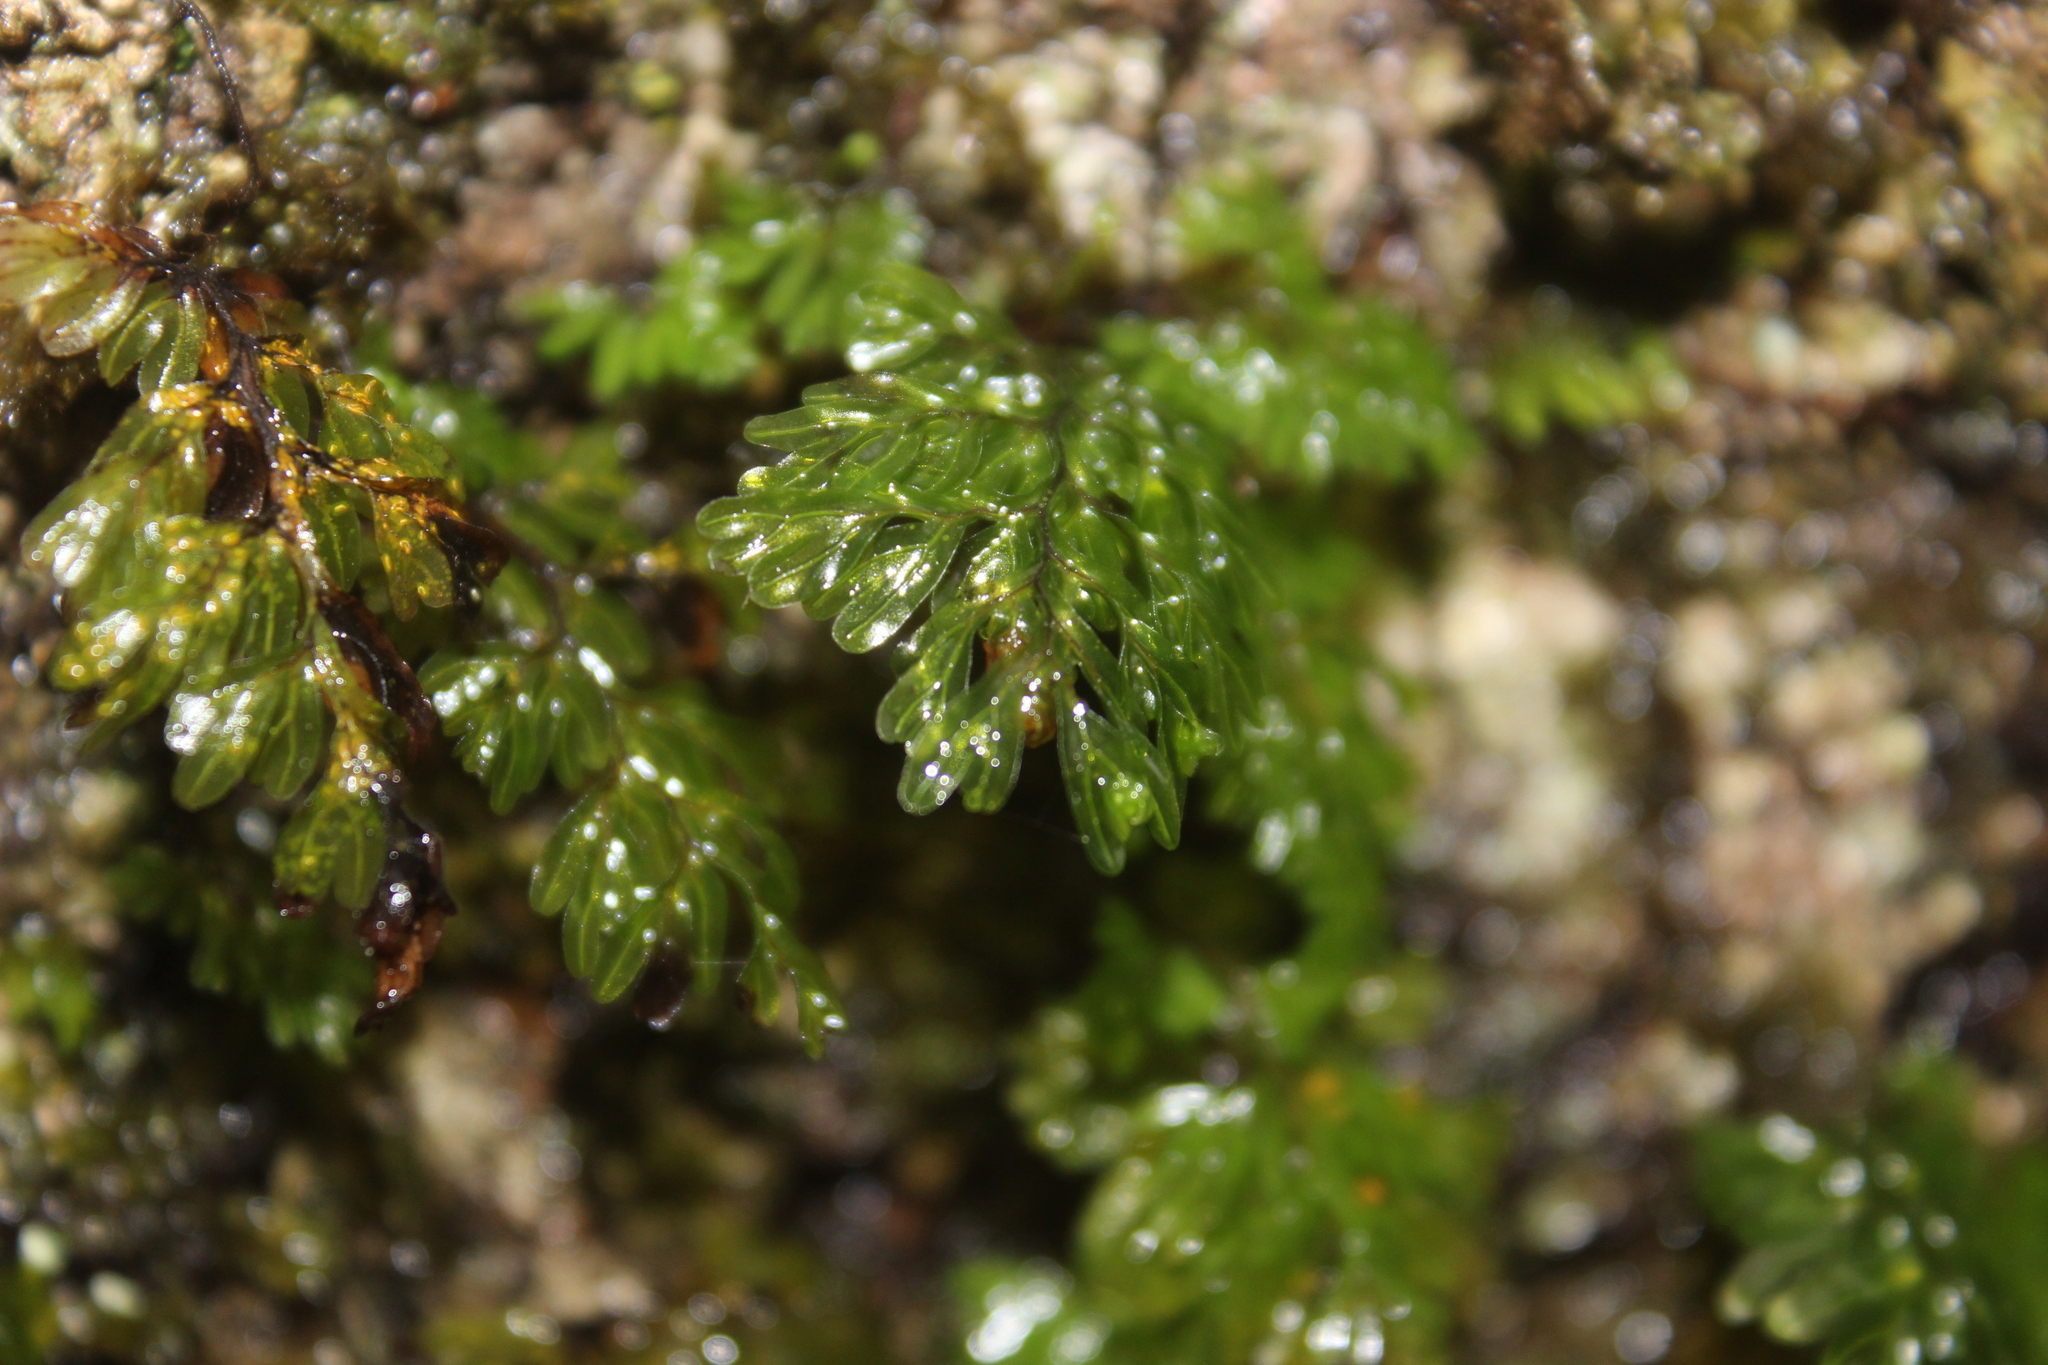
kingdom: Plantae
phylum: Tracheophyta
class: Polypodiopsida
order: Hymenophyllales
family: Hymenophyllaceae
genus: Hymenophyllum
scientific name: Hymenophyllum sanguinolentum
